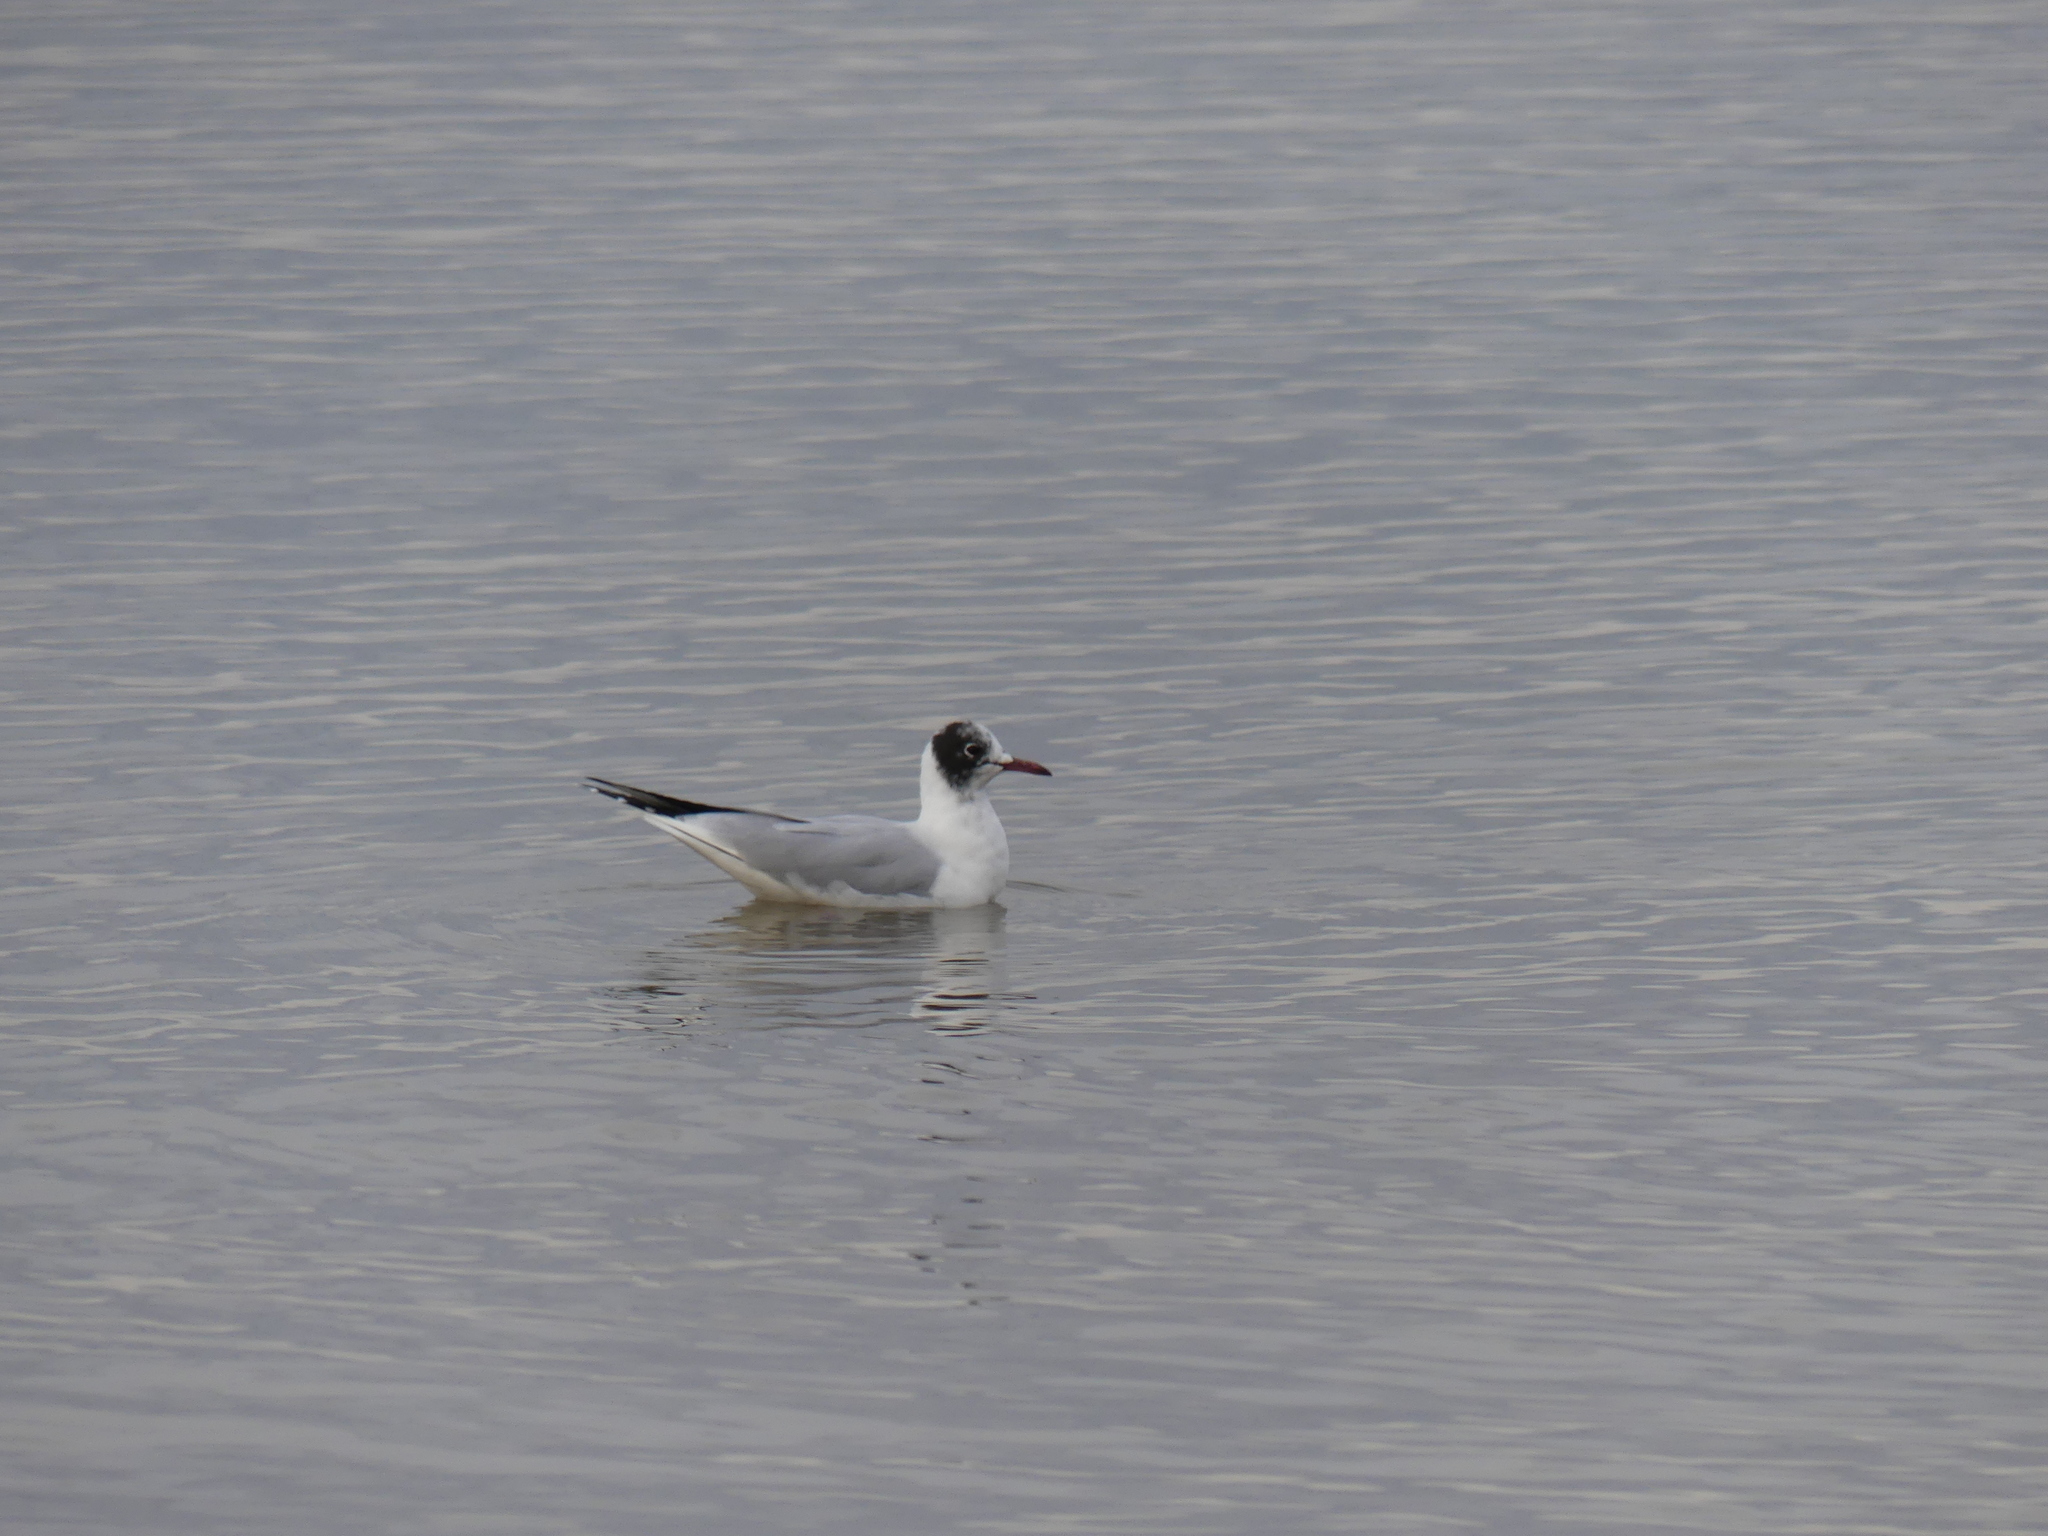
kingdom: Animalia
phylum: Chordata
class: Aves
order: Charadriiformes
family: Laridae
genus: Chroicocephalus
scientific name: Chroicocephalus ridibundus
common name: Black-headed gull
